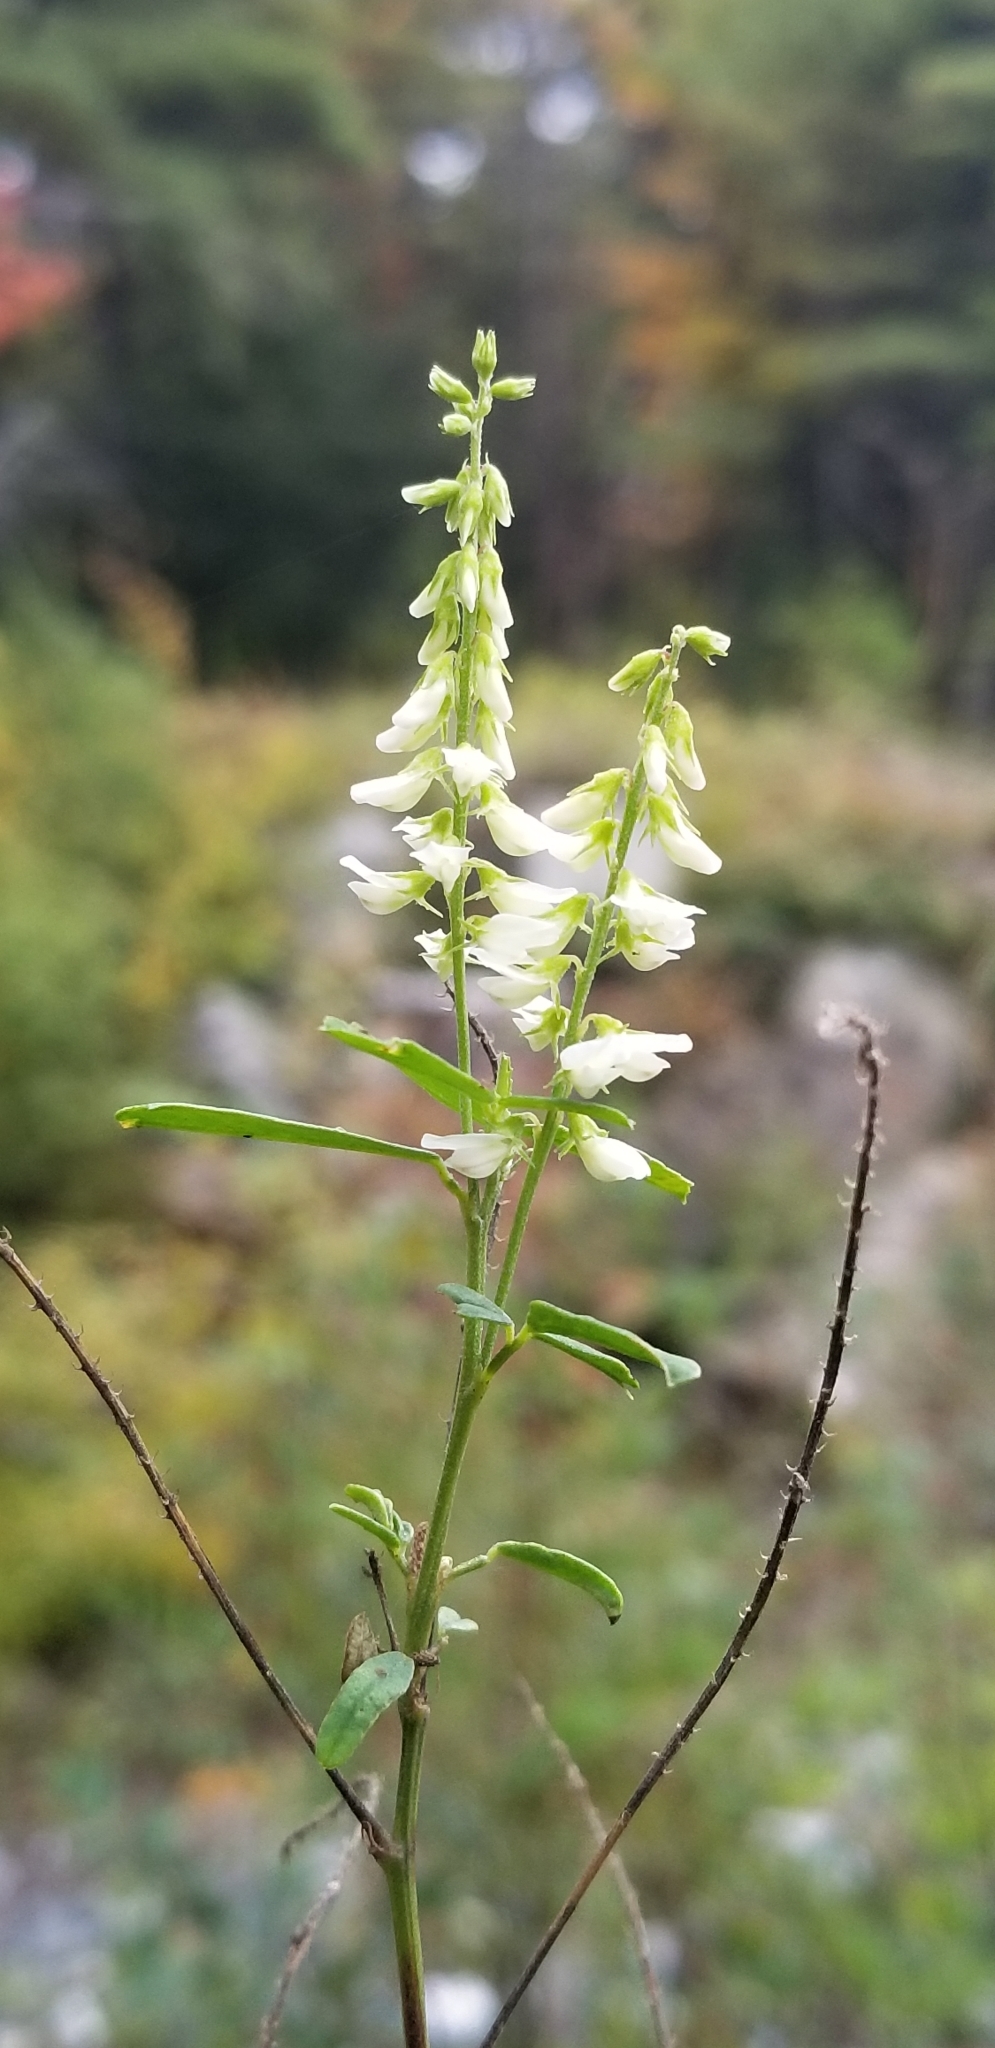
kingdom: Plantae
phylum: Tracheophyta
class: Magnoliopsida
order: Fabales
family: Fabaceae
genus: Melilotus
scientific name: Melilotus albus
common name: White melilot
